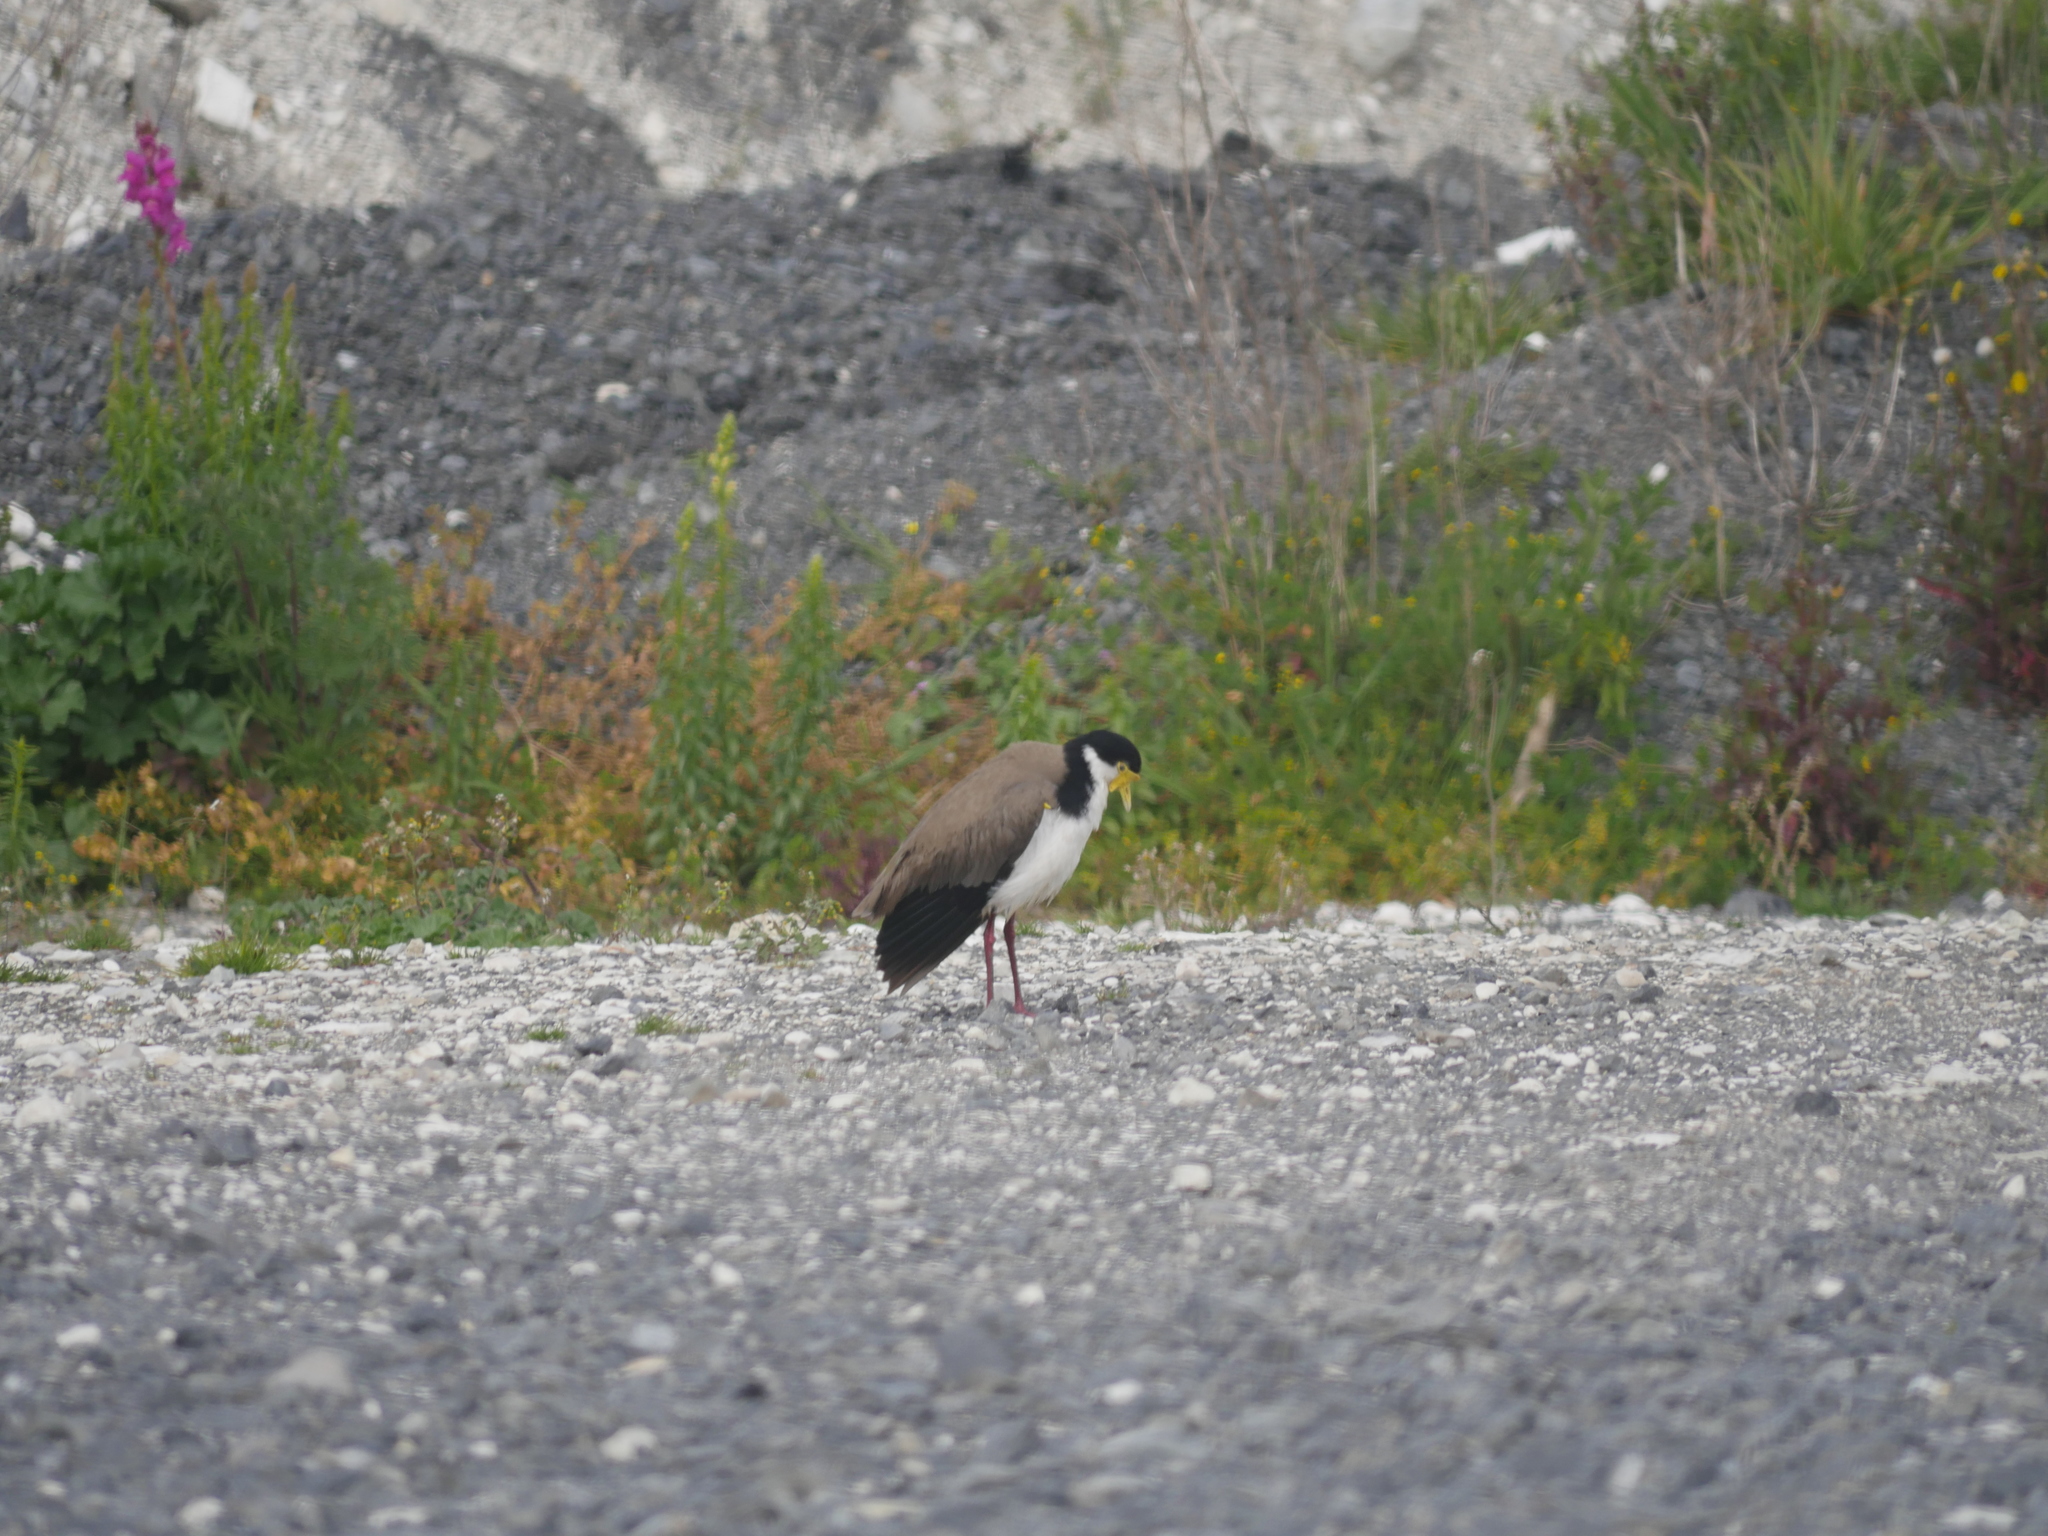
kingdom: Animalia
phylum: Chordata
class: Aves
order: Charadriiformes
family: Charadriidae
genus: Vanellus
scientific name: Vanellus miles
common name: Masked lapwing
